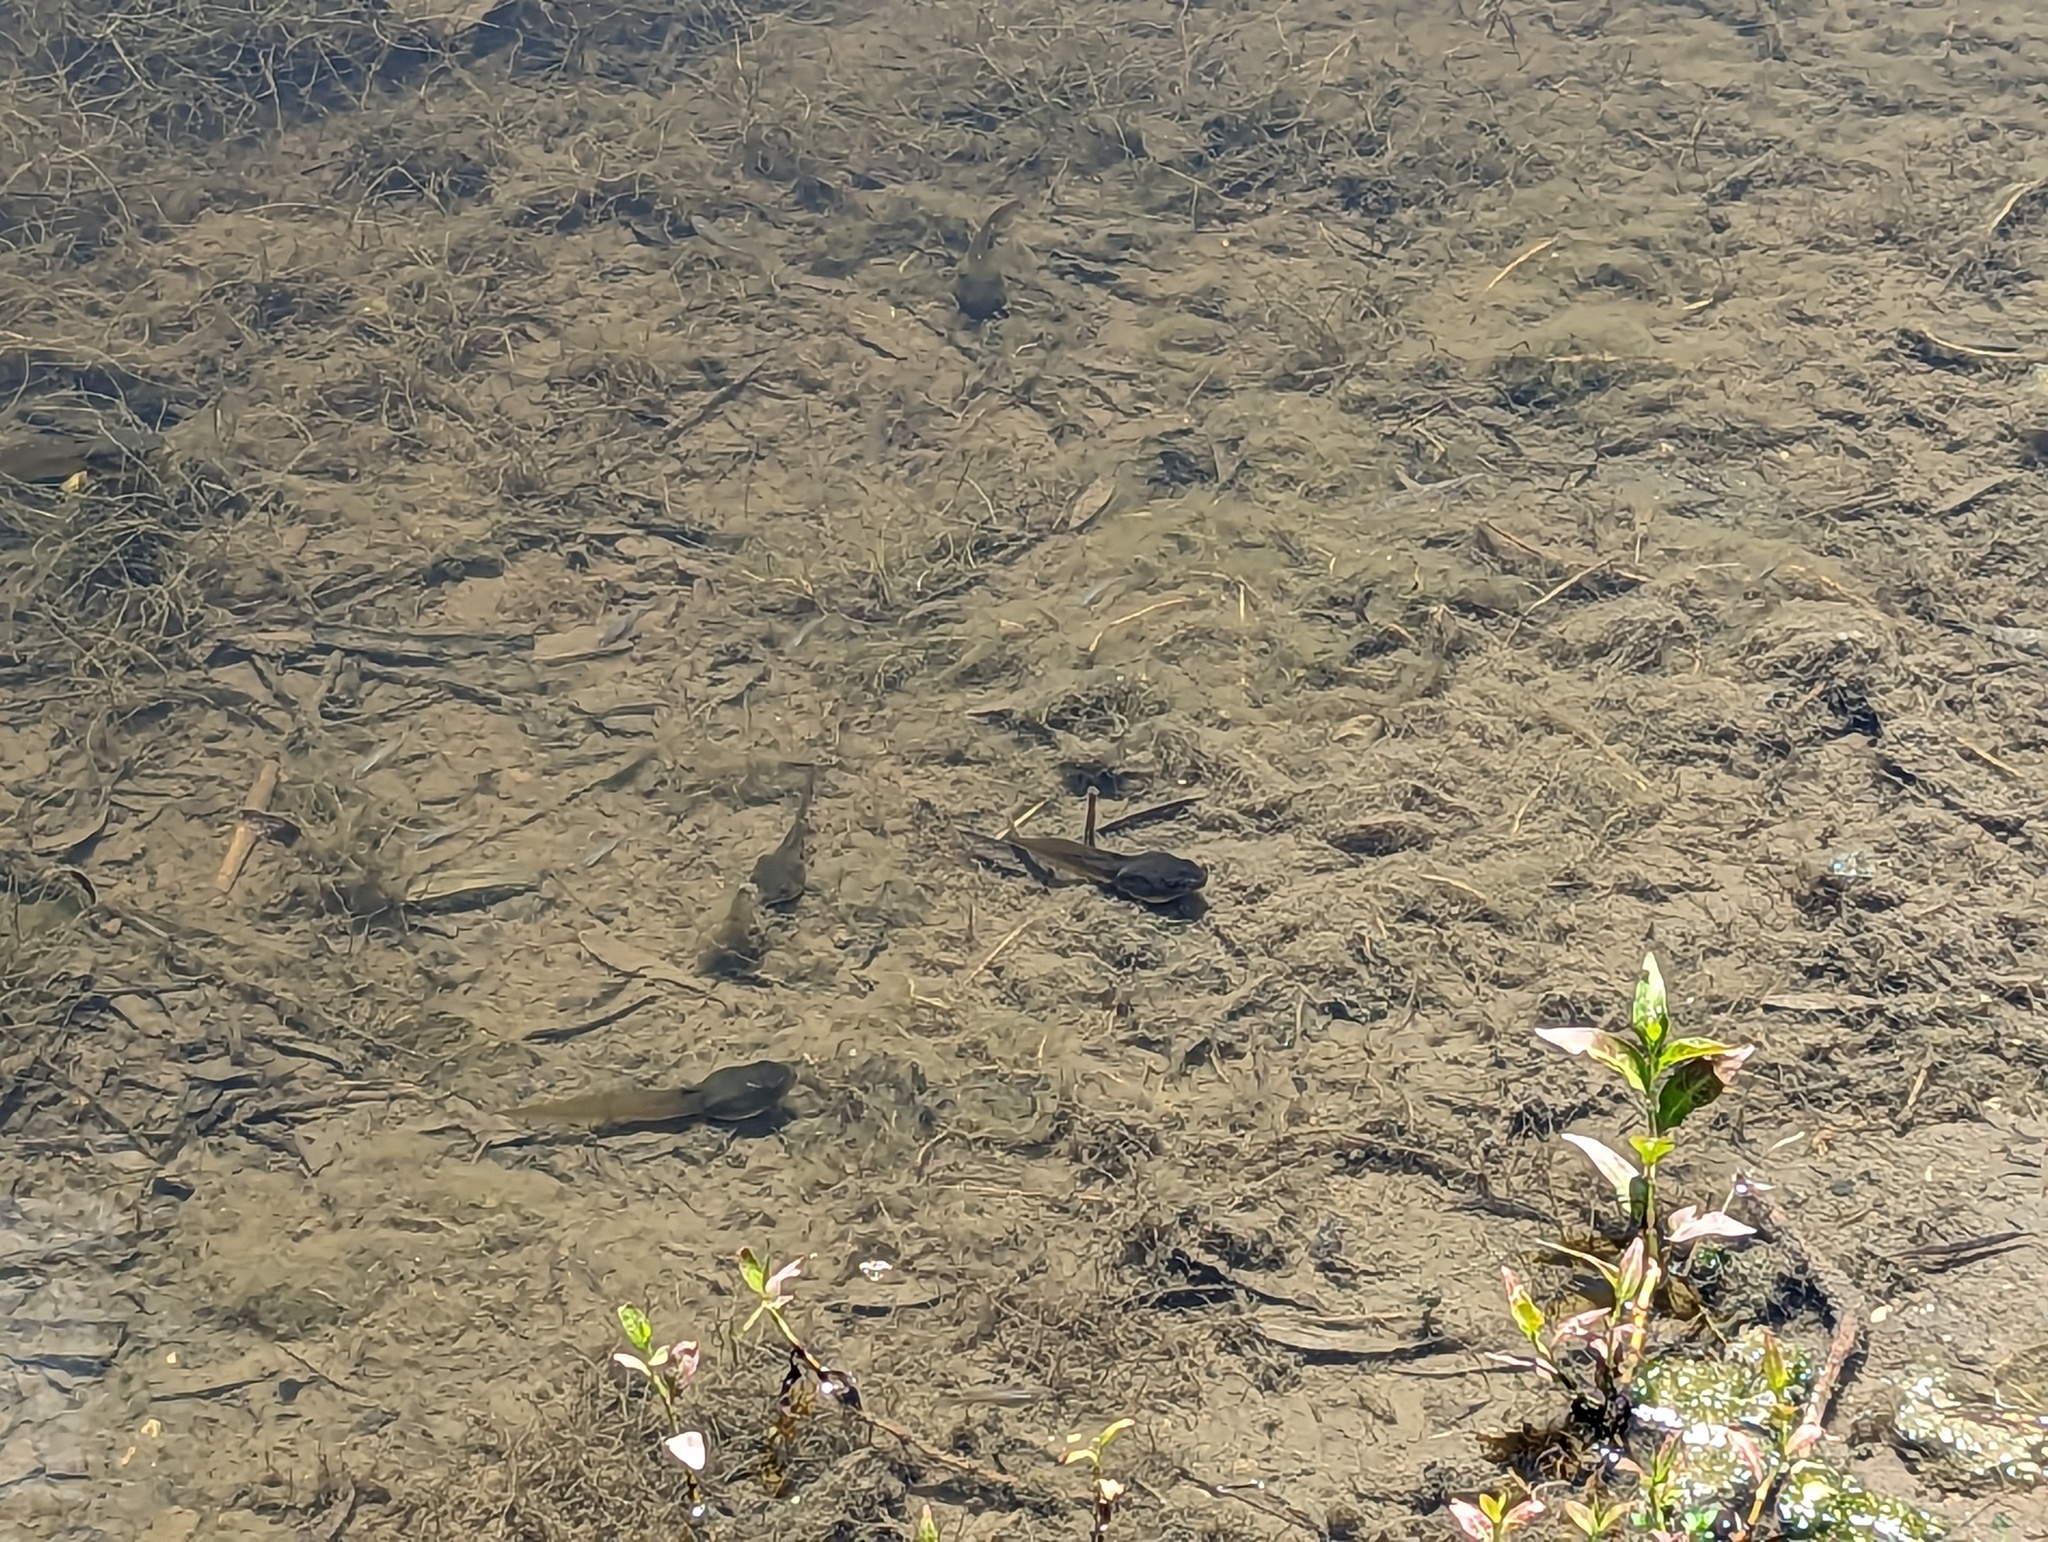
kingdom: Animalia
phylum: Chordata
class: Amphibia
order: Anura
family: Ranidae
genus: Lithobates
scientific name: Lithobates catesbeianus
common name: American bullfrog
